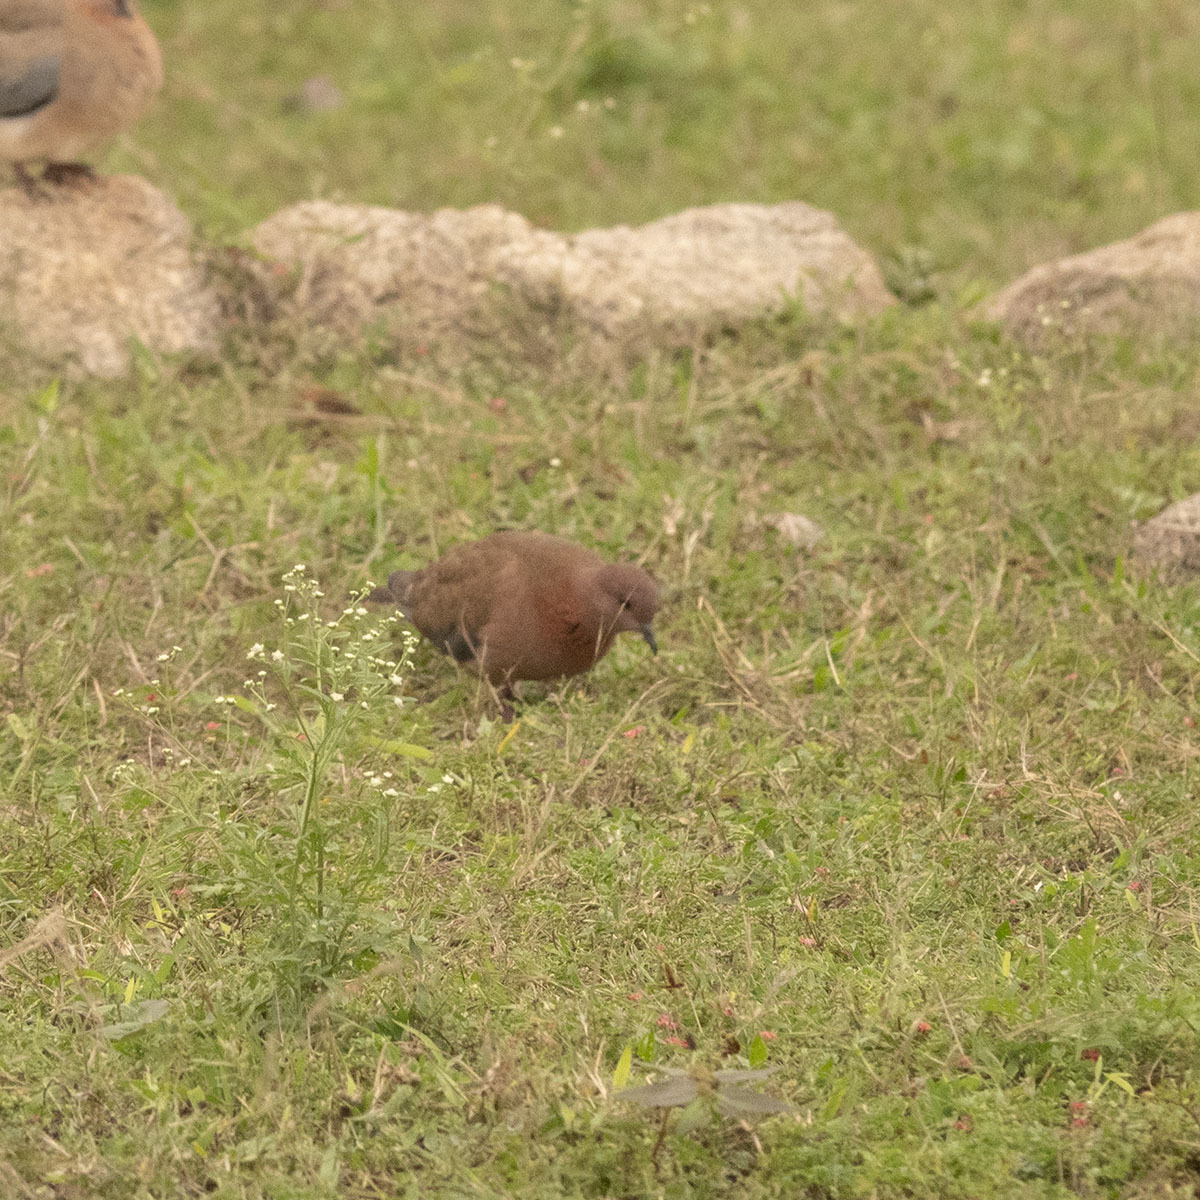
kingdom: Animalia
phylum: Chordata
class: Aves
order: Columbiformes
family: Columbidae
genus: Spilopelia
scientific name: Spilopelia senegalensis
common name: Laughing dove
